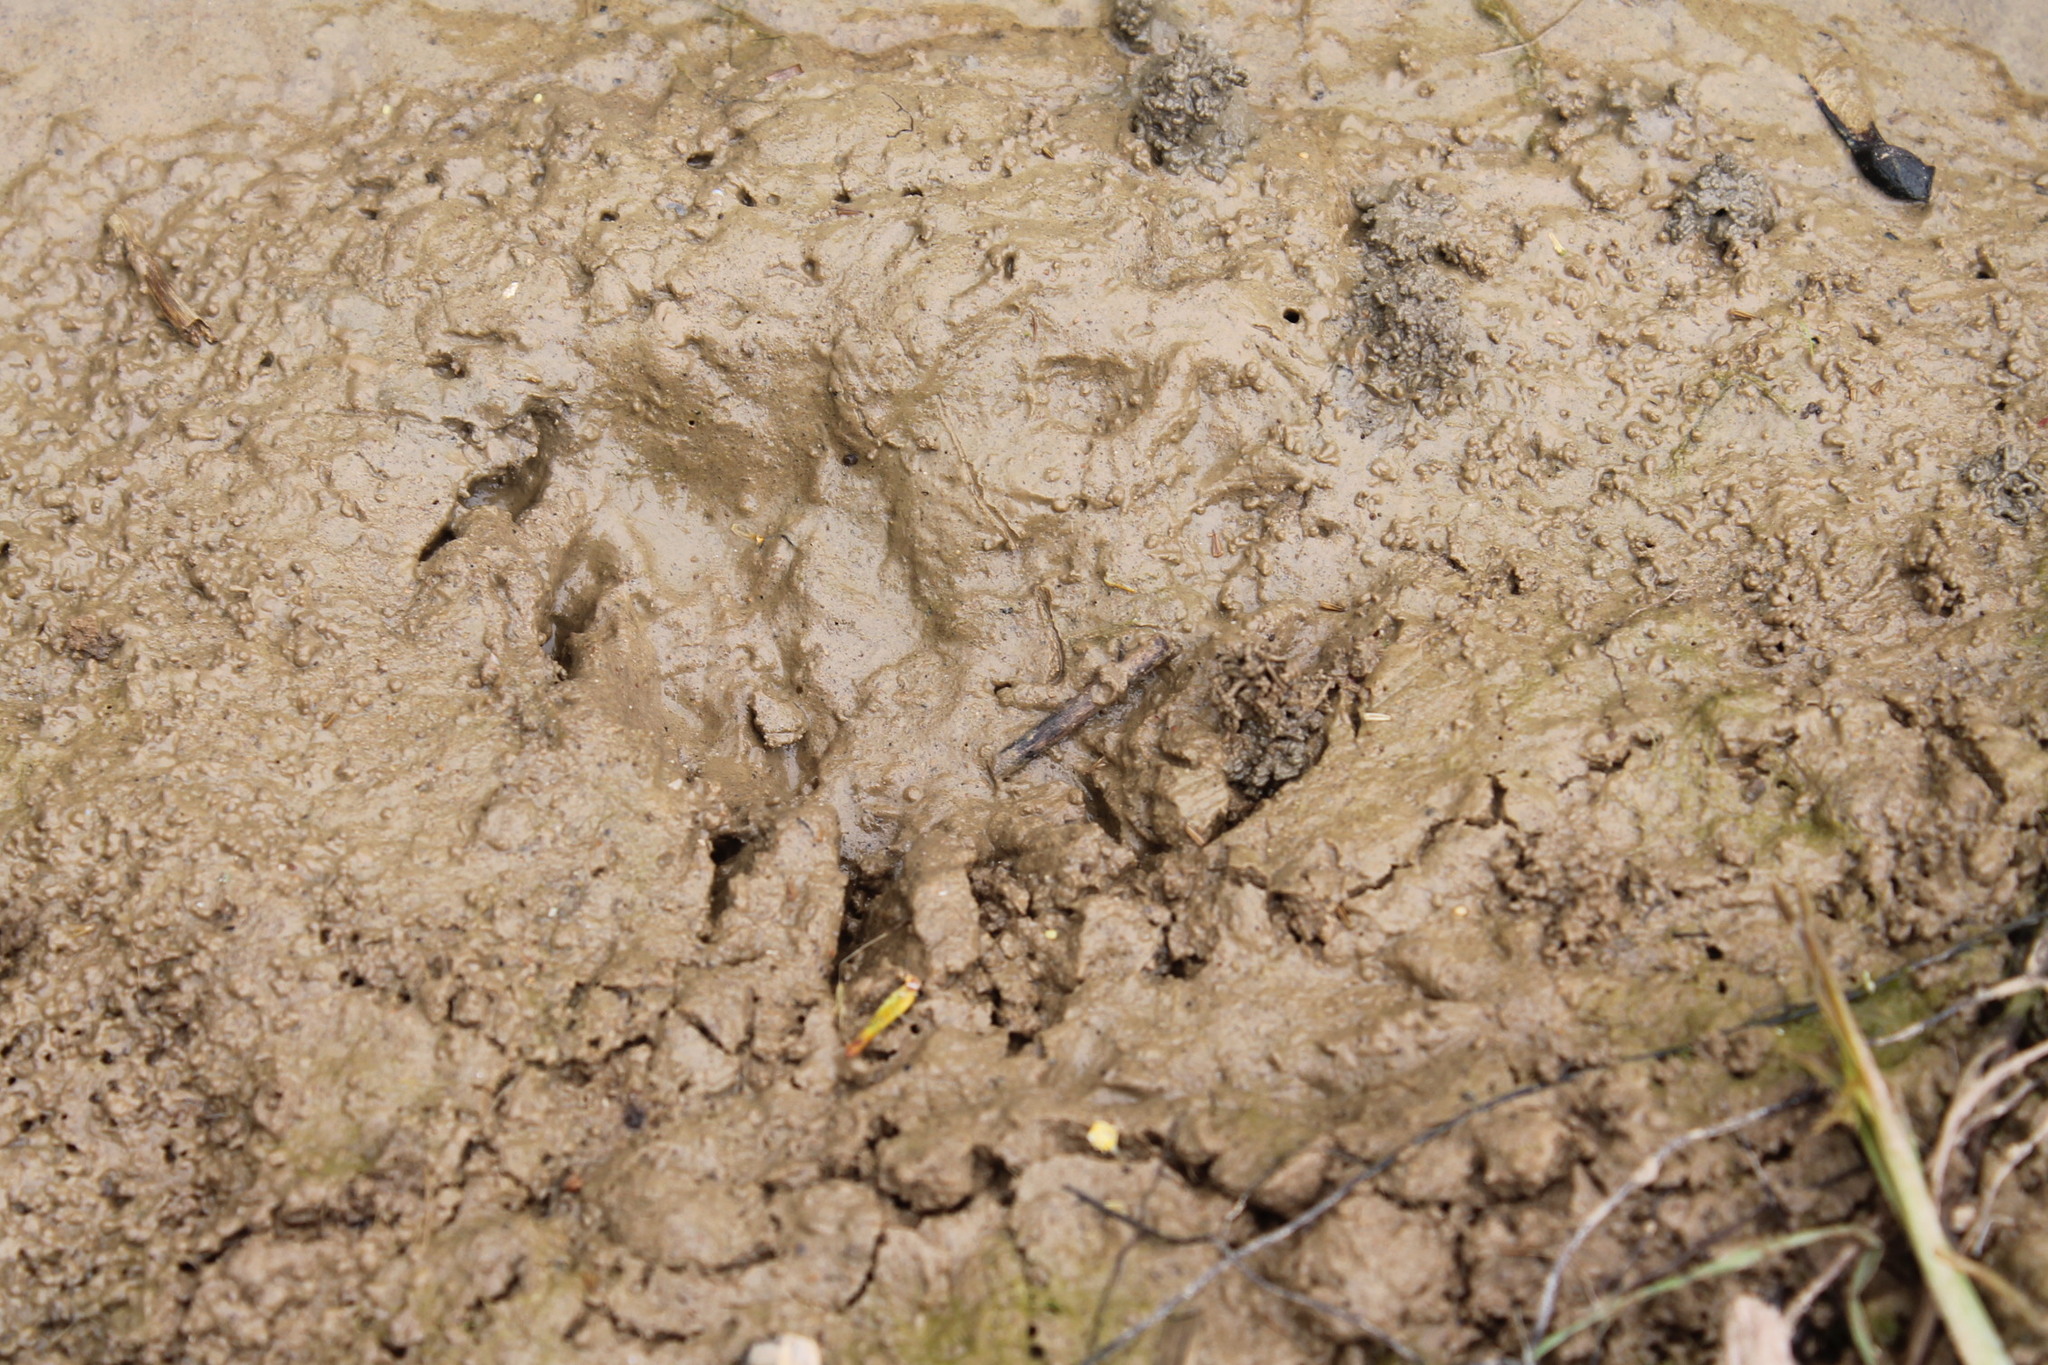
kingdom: Animalia
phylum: Chordata
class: Mammalia
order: Carnivora
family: Procyonidae
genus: Procyon
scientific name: Procyon lotor
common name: Raccoon
